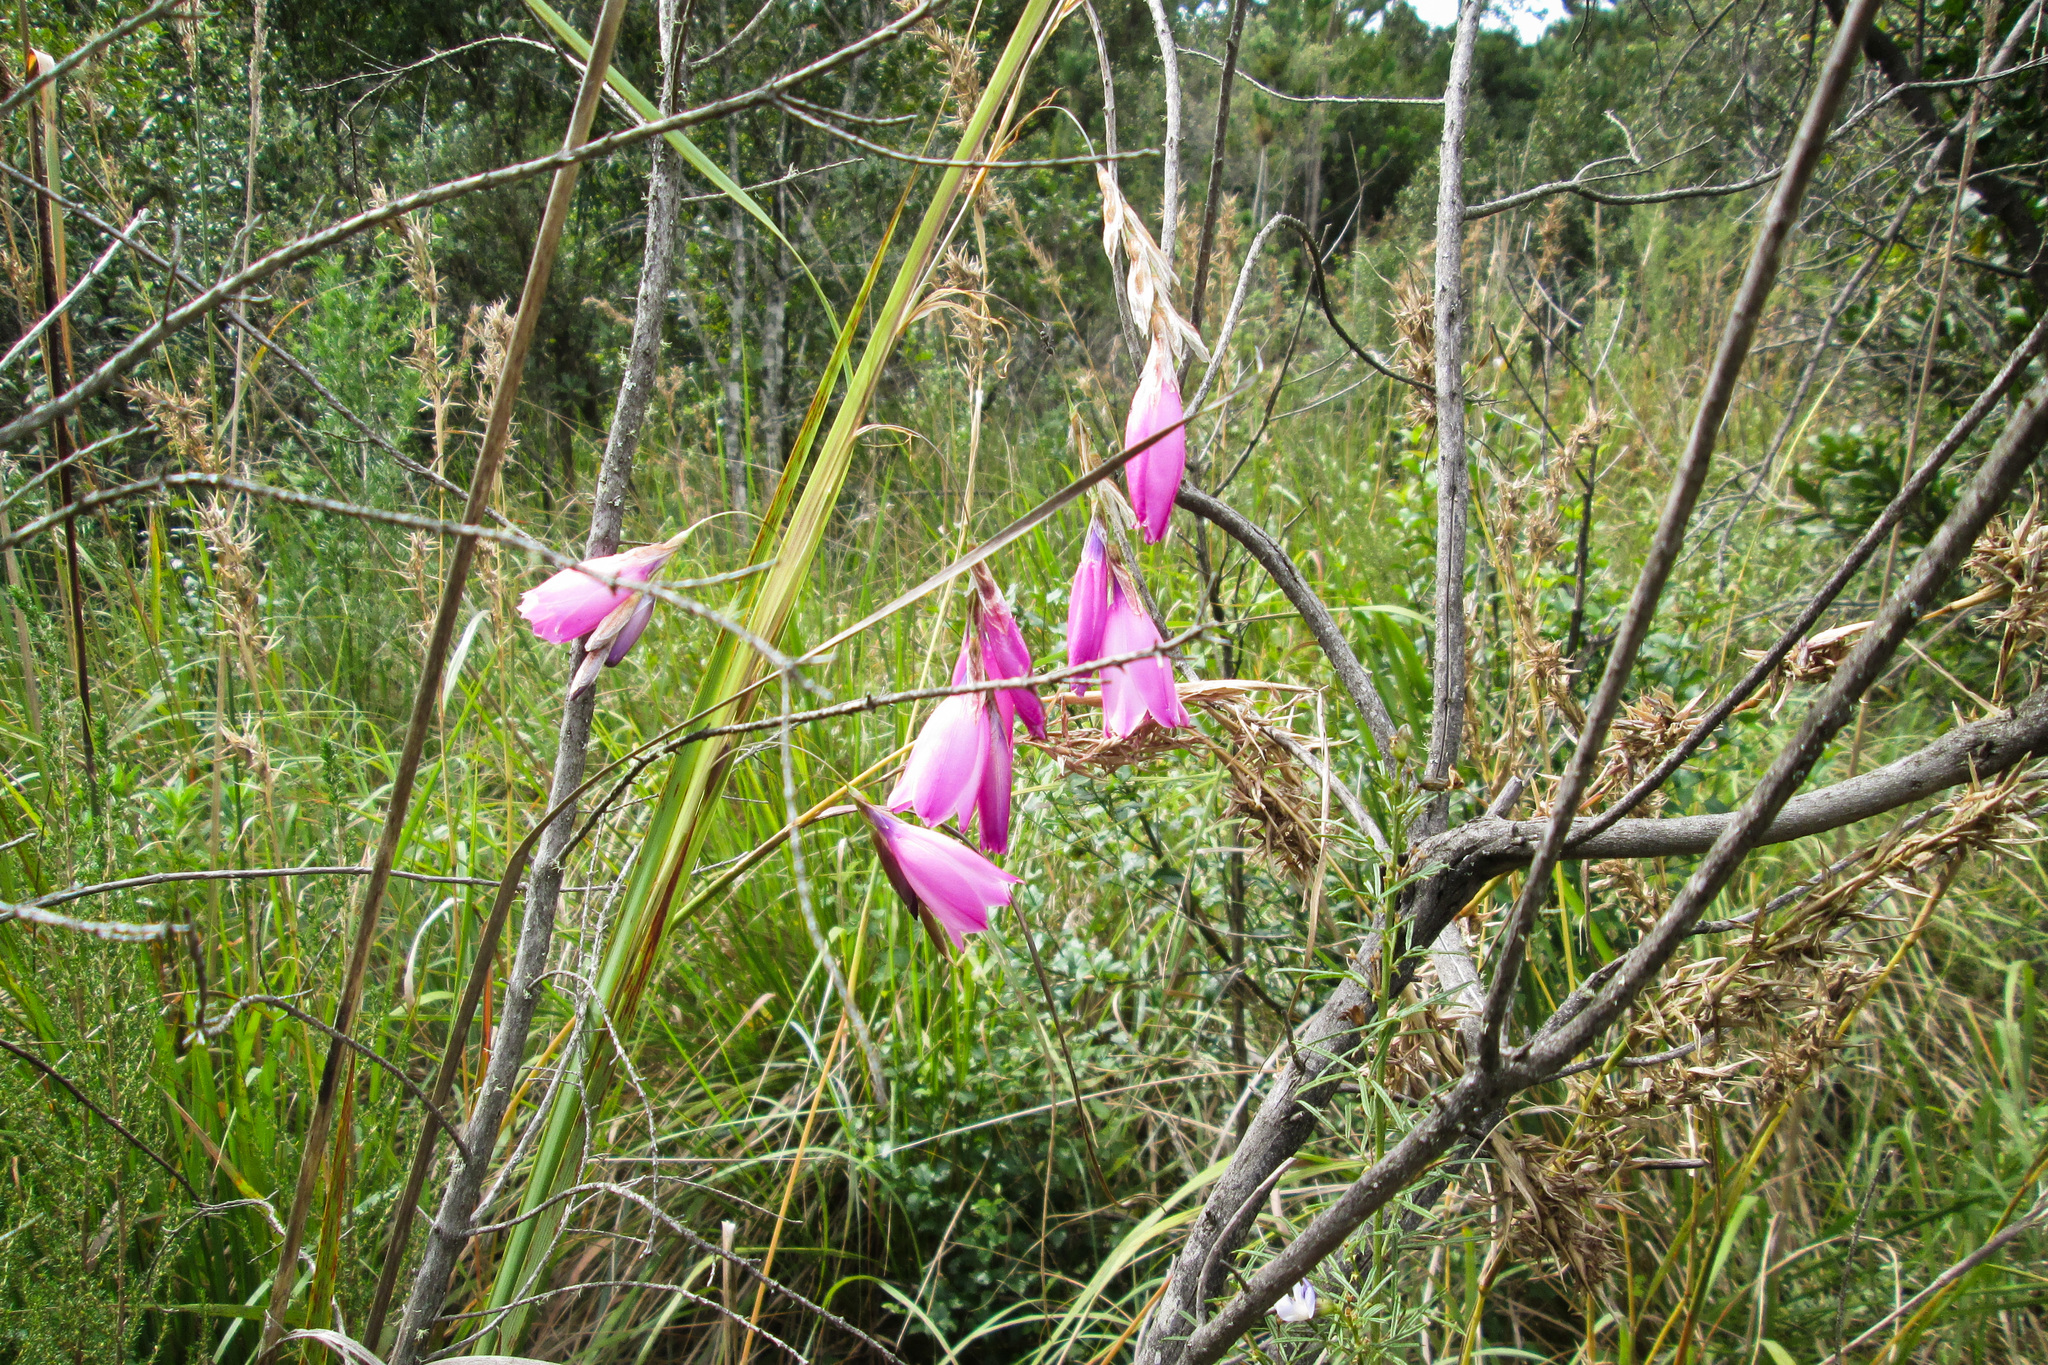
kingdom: Plantae
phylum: Tracheophyta
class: Liliopsida
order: Asparagales
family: Iridaceae
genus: Dierama
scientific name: Dierama pulcherrimum
